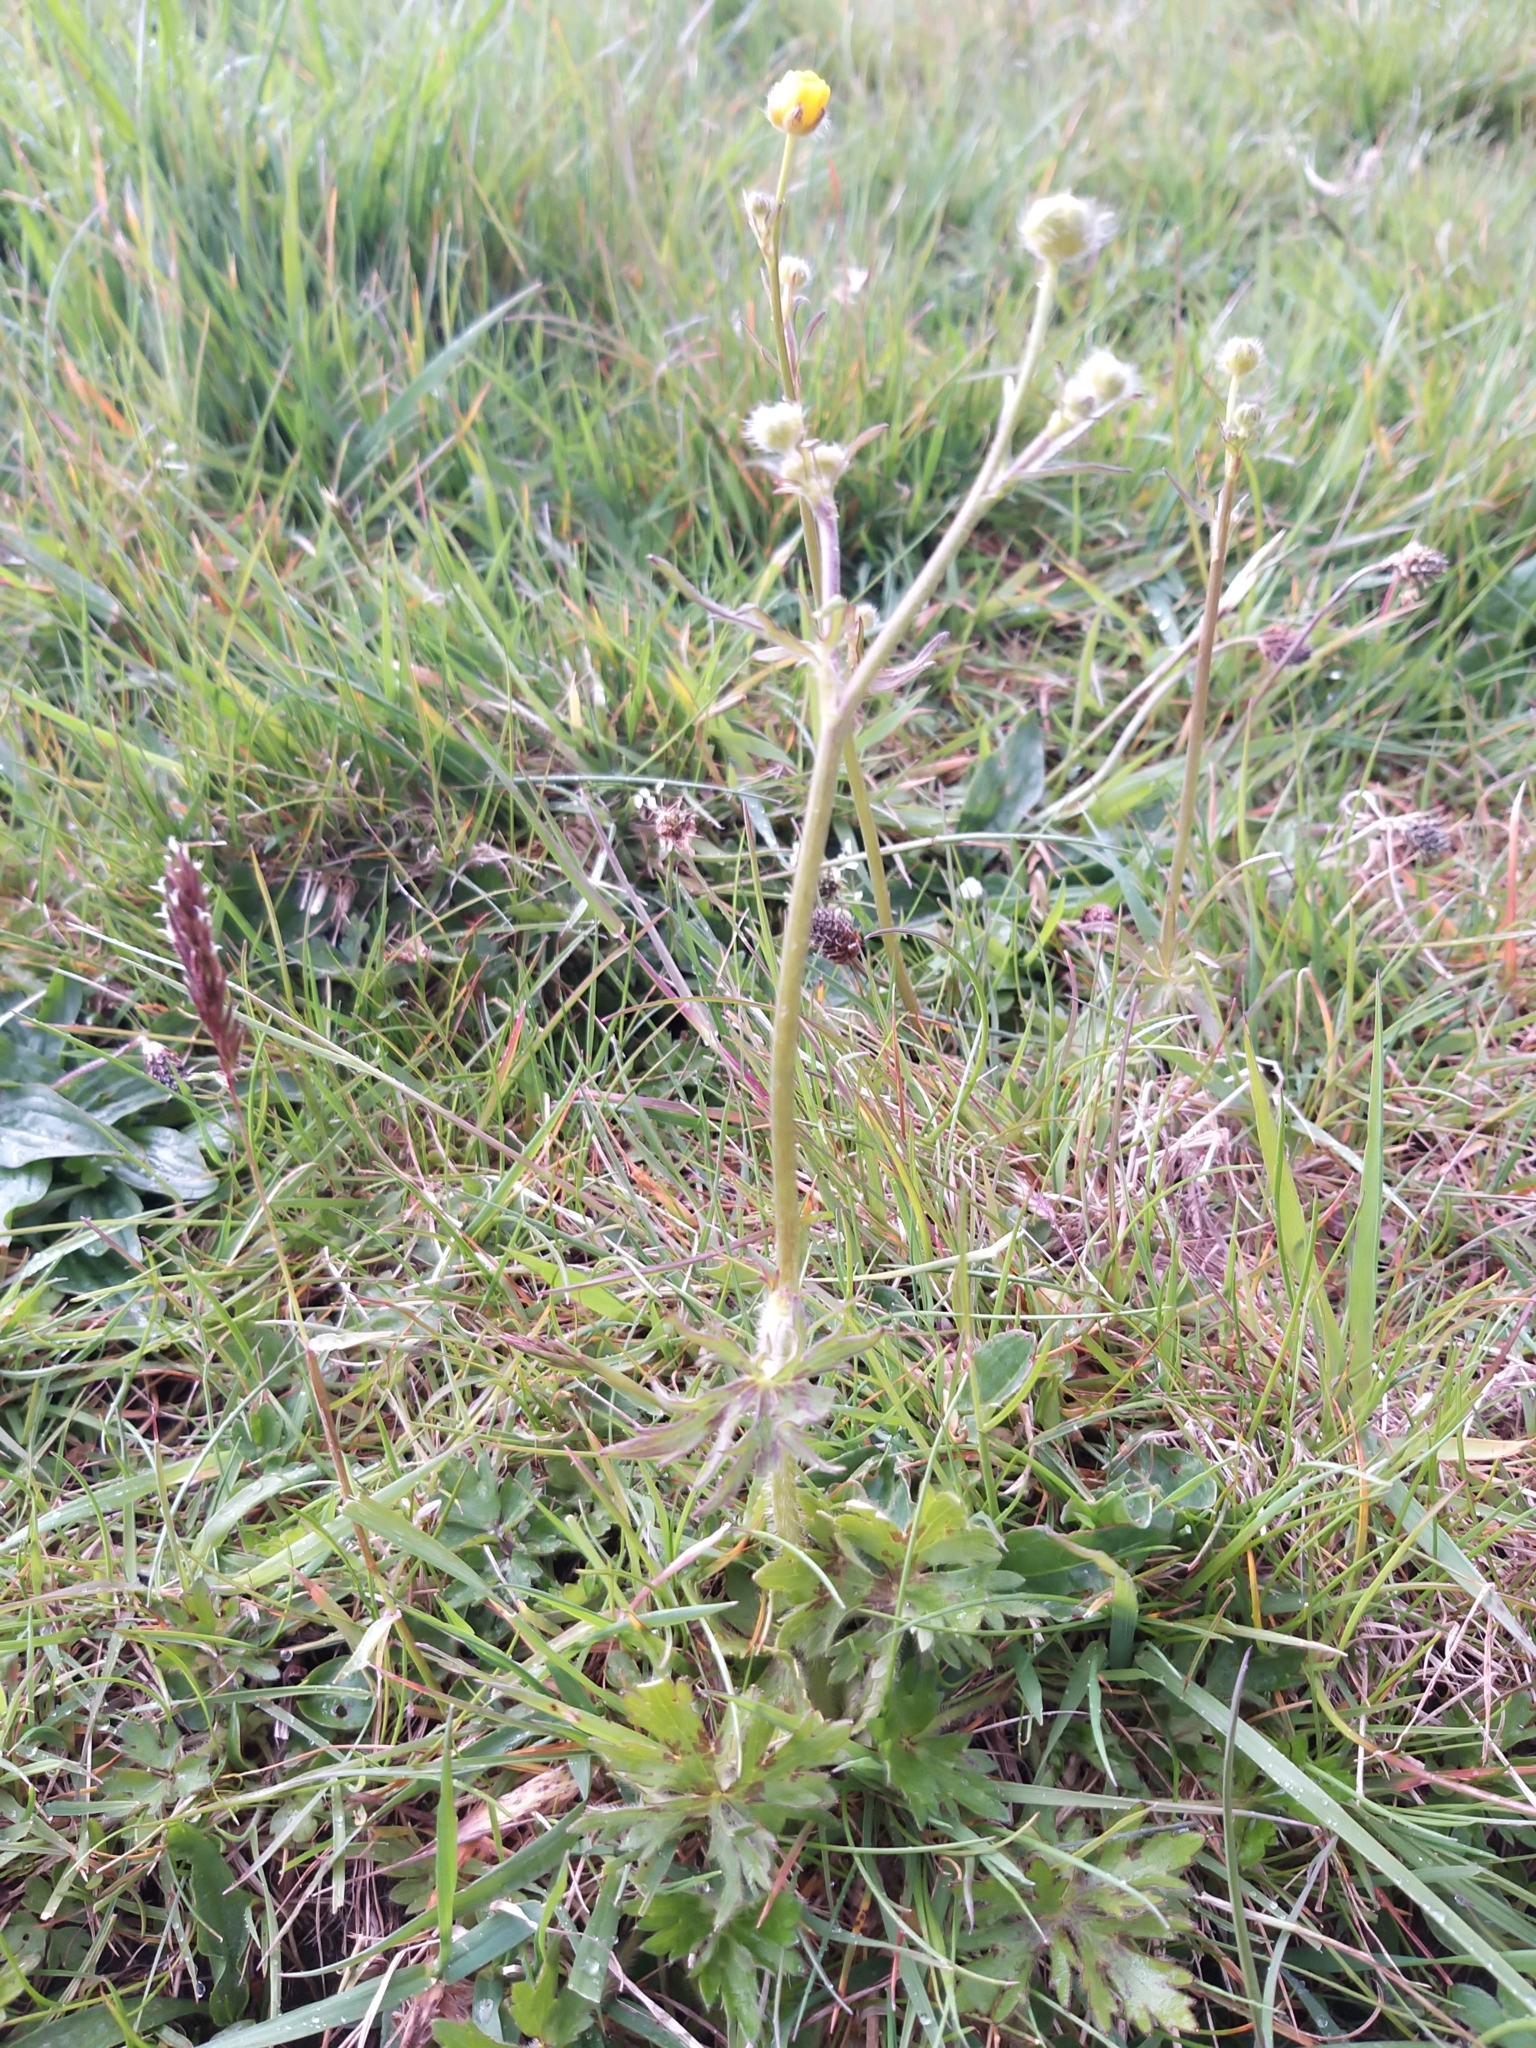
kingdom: Plantae
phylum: Tracheophyta
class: Magnoliopsida
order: Ranunculales
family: Ranunculaceae
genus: Ranunculus
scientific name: Ranunculus acris
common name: Meadow buttercup
